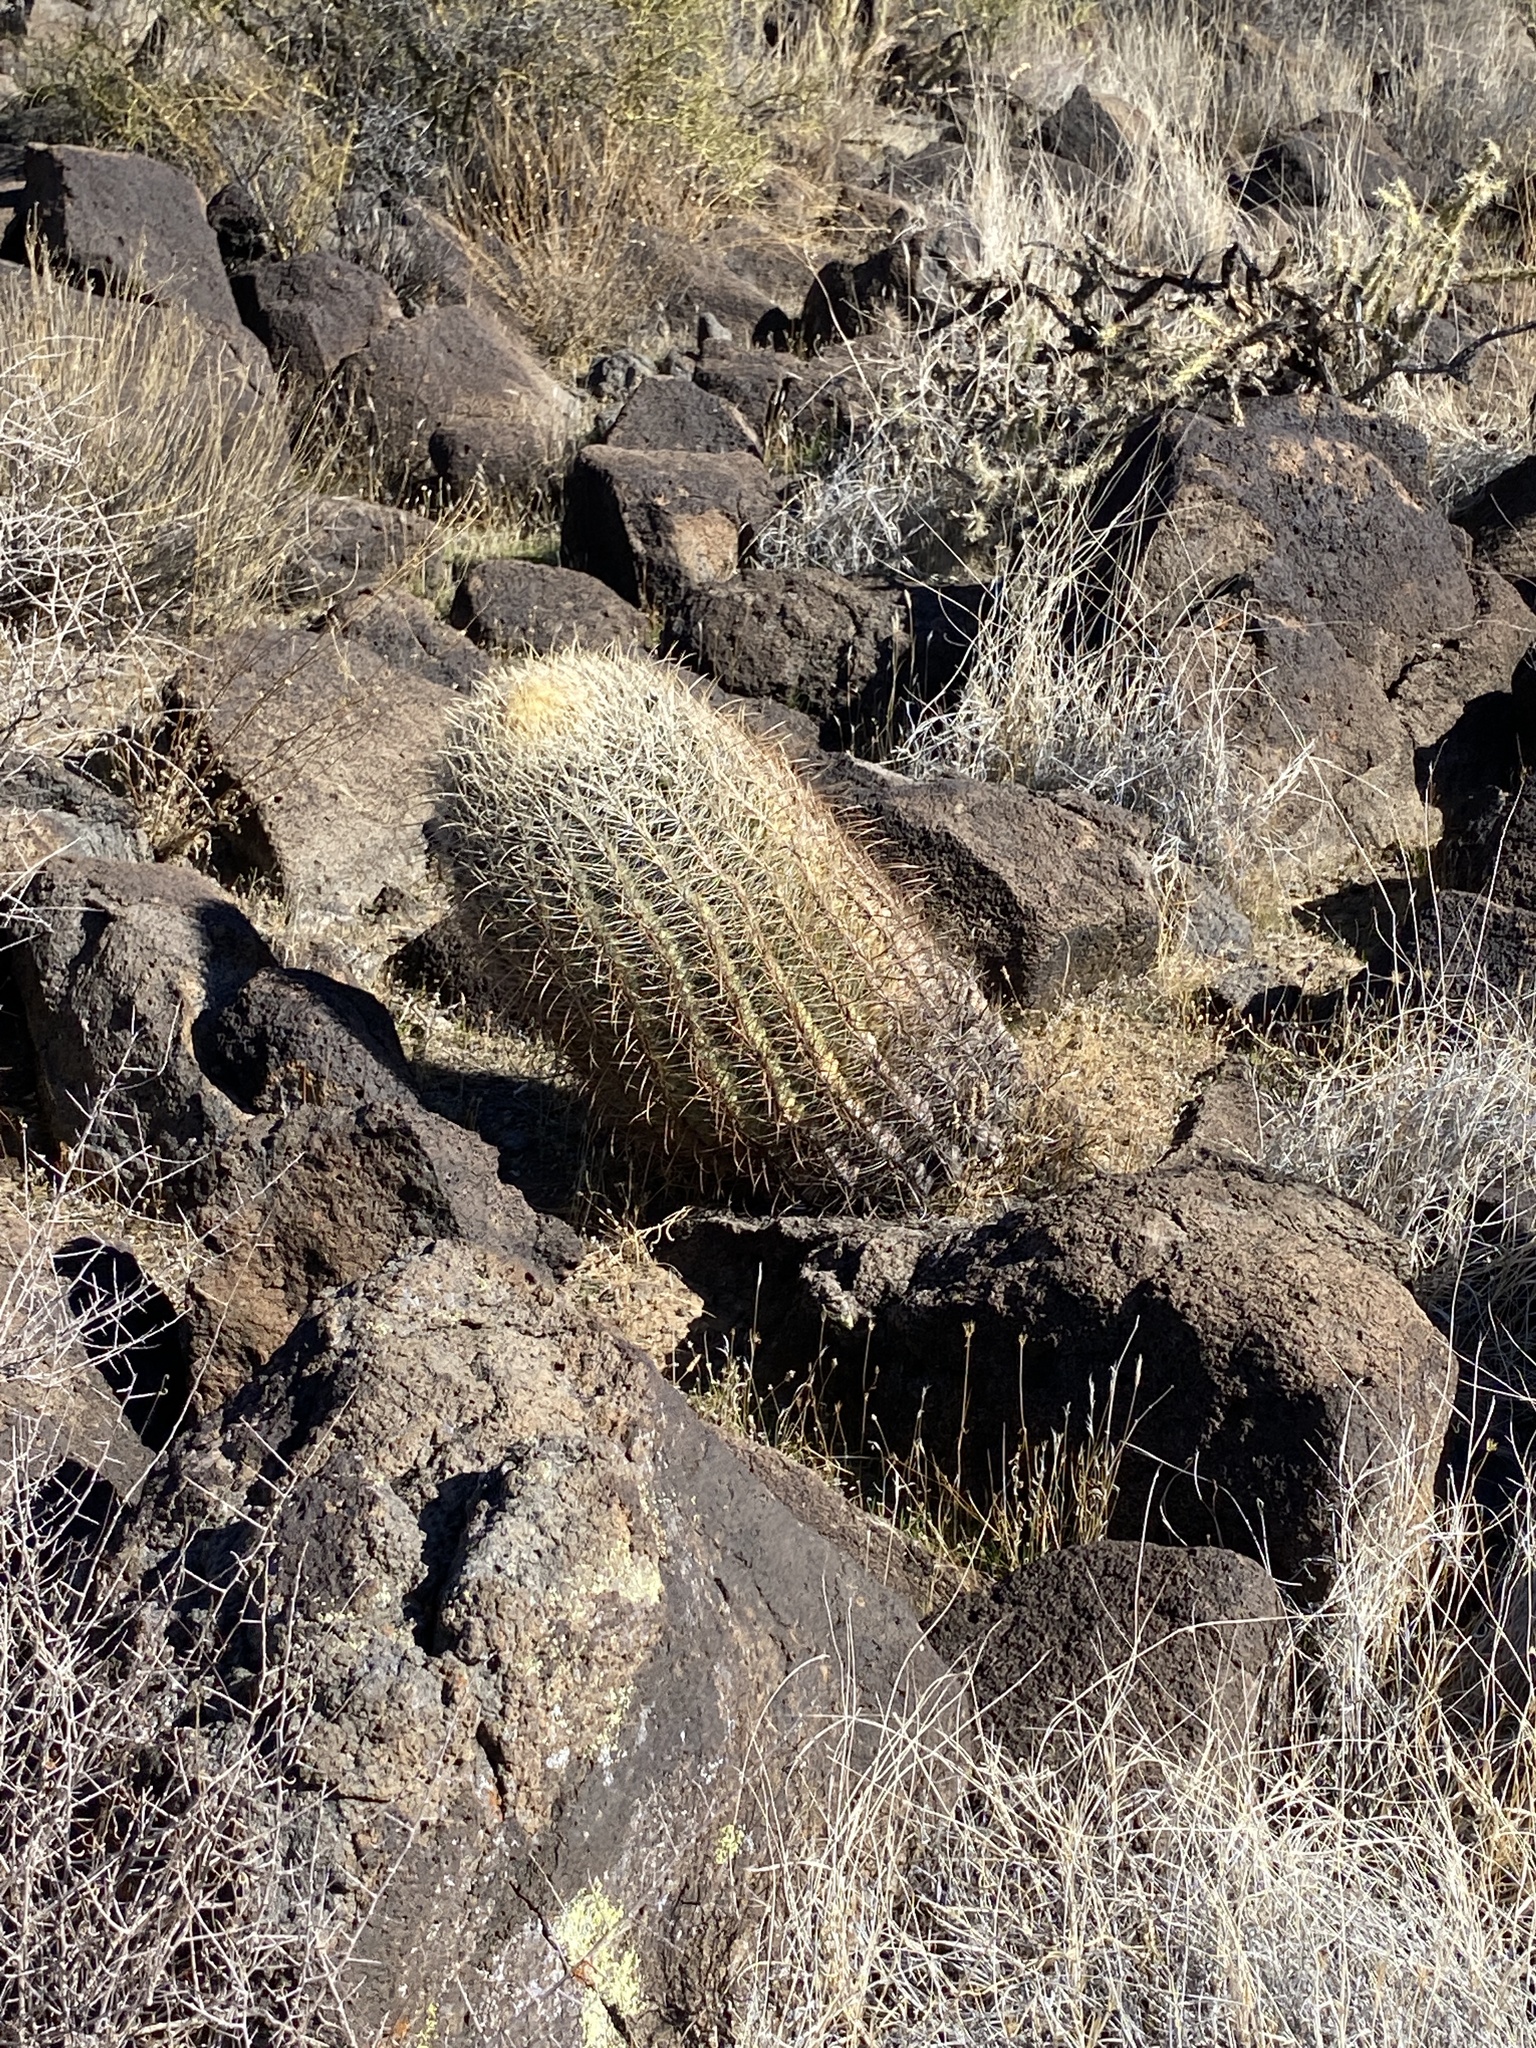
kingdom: Plantae
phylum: Tracheophyta
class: Magnoliopsida
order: Caryophyllales
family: Cactaceae
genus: Ferocactus
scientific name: Ferocactus cylindraceus
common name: California barrel cactus
